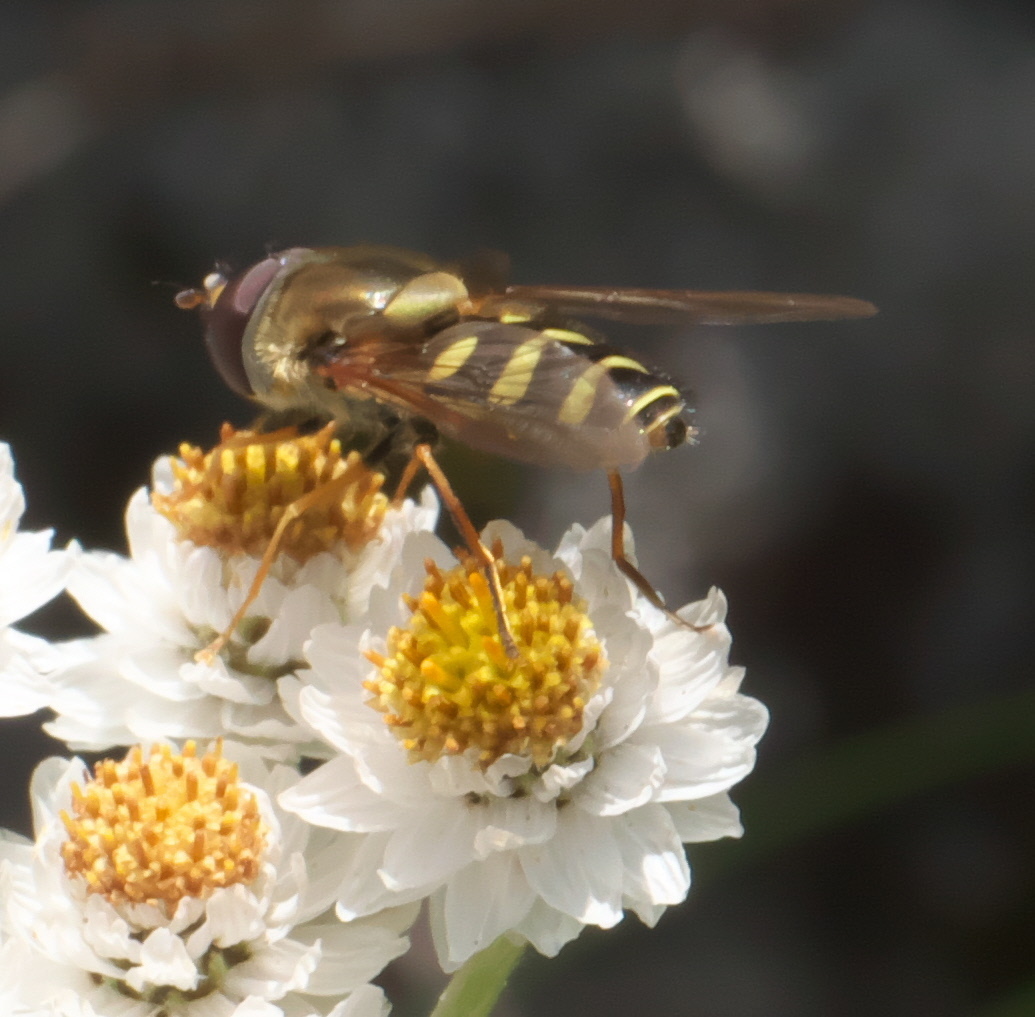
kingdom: Animalia
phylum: Arthropoda
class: Insecta
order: Diptera
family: Syrphidae
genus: Syrphus
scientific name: Syrphus opinator
